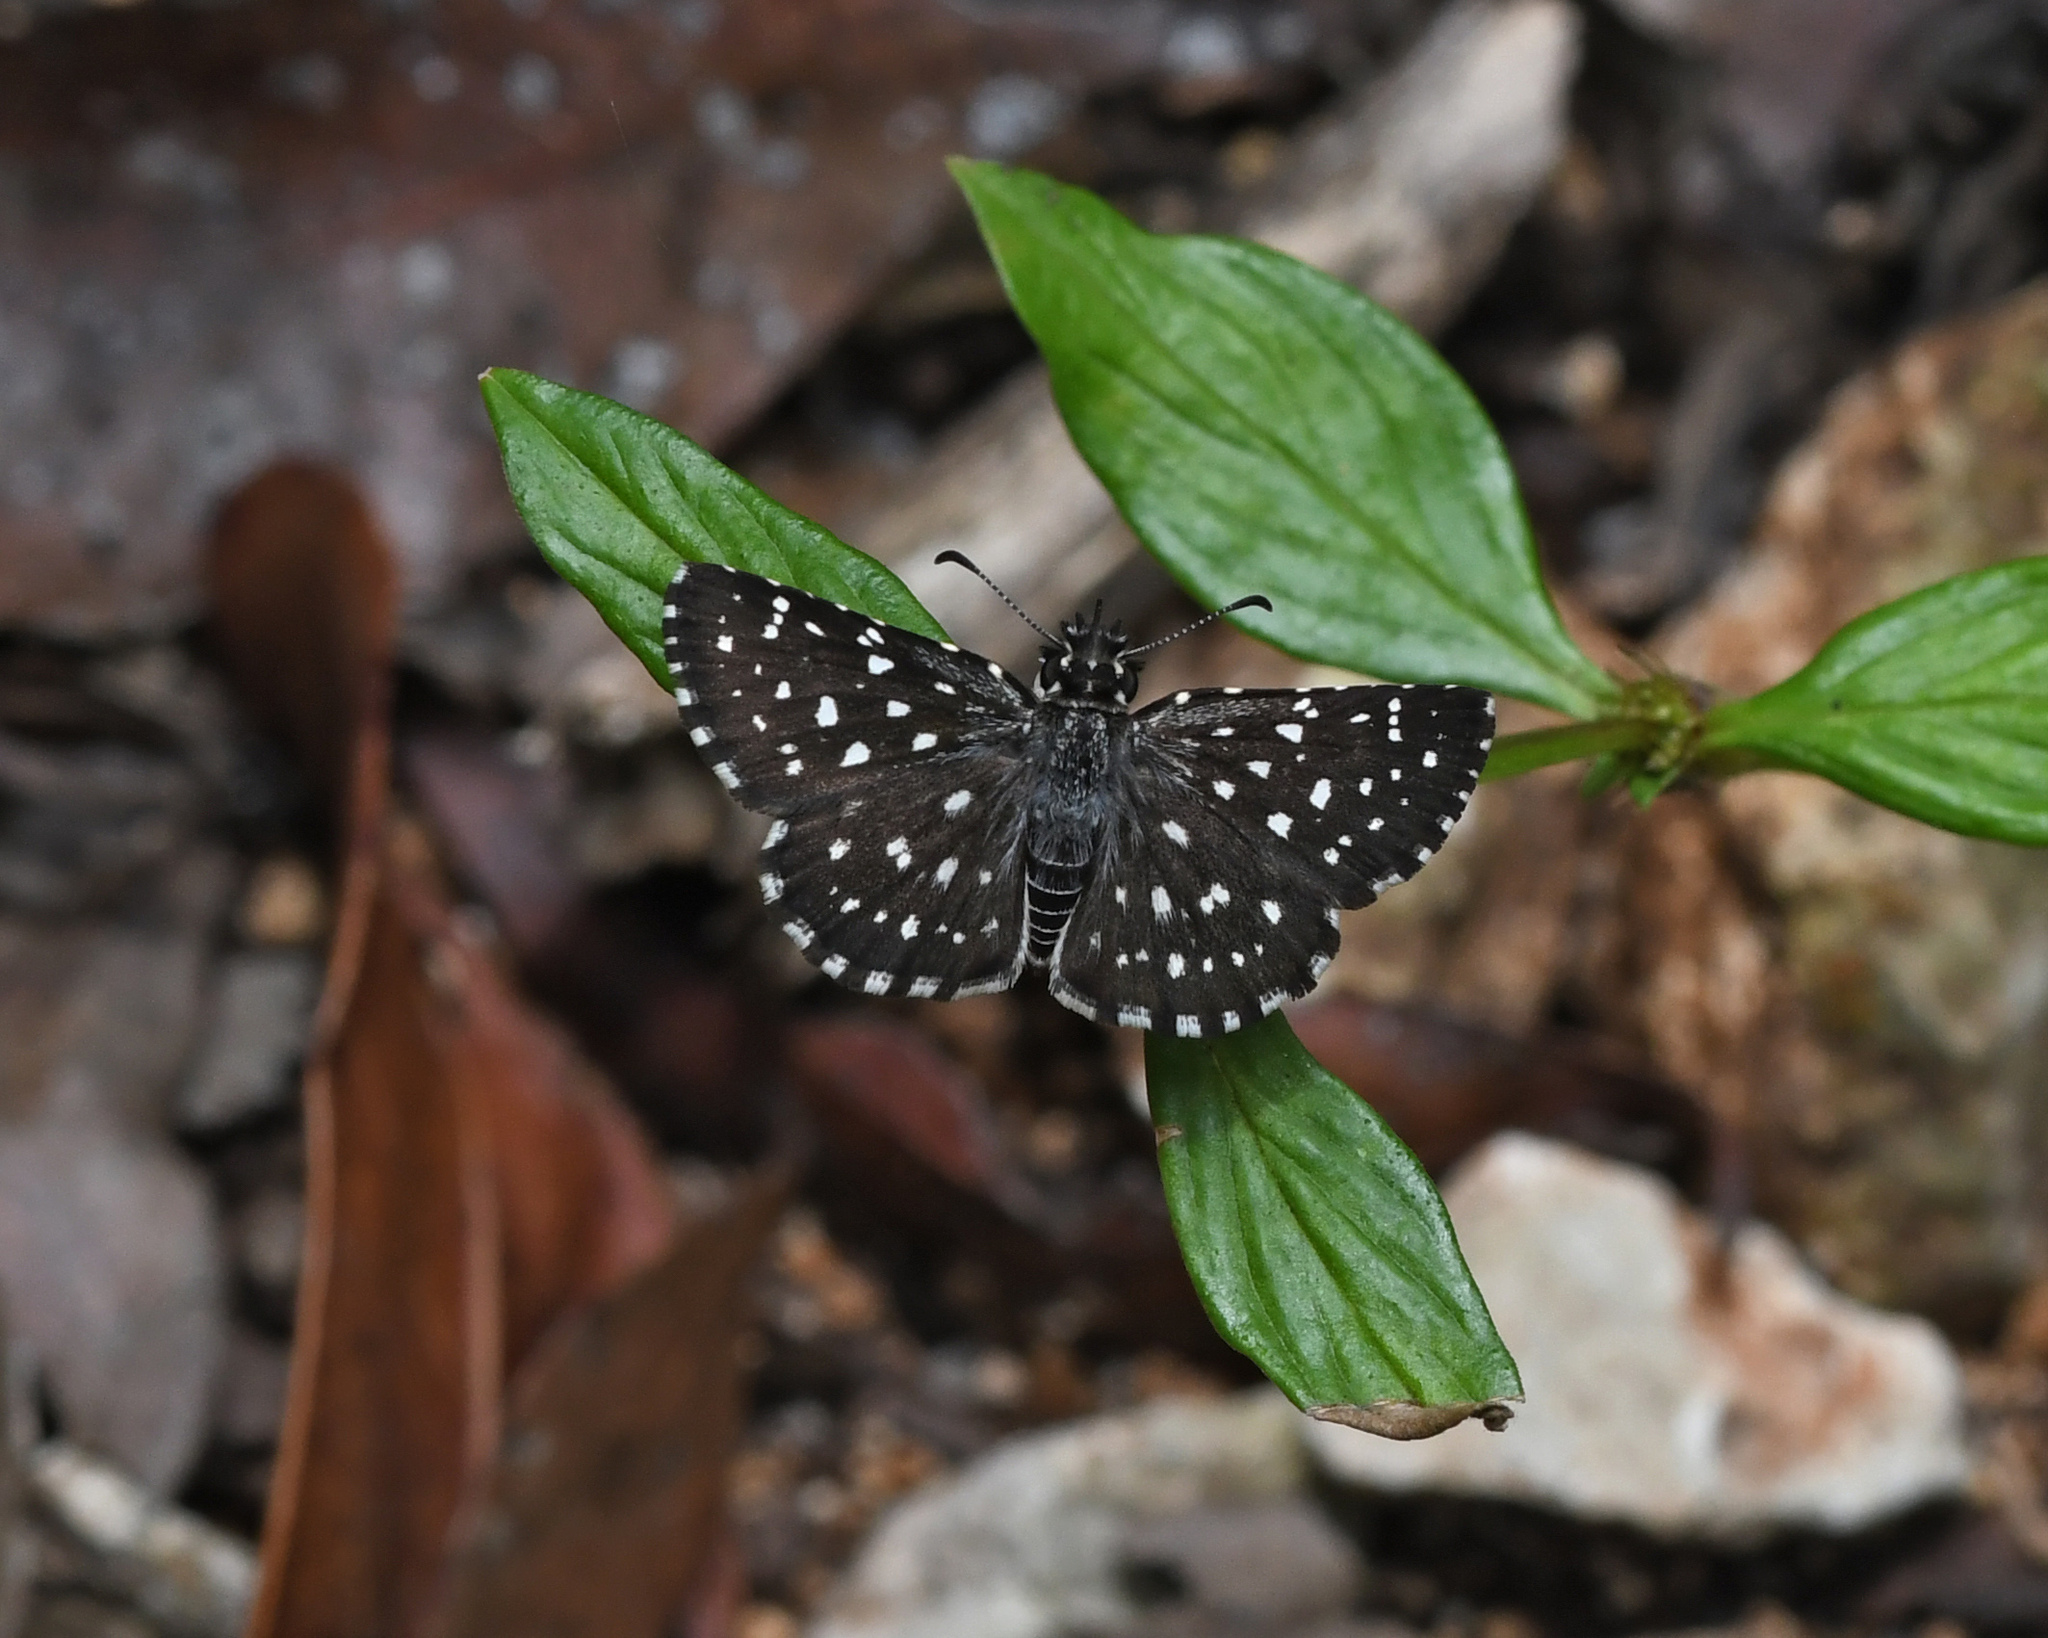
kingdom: Animalia
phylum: Arthropoda
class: Insecta
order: Lepidoptera
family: Hesperiidae
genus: Burnsius
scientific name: Burnsius
